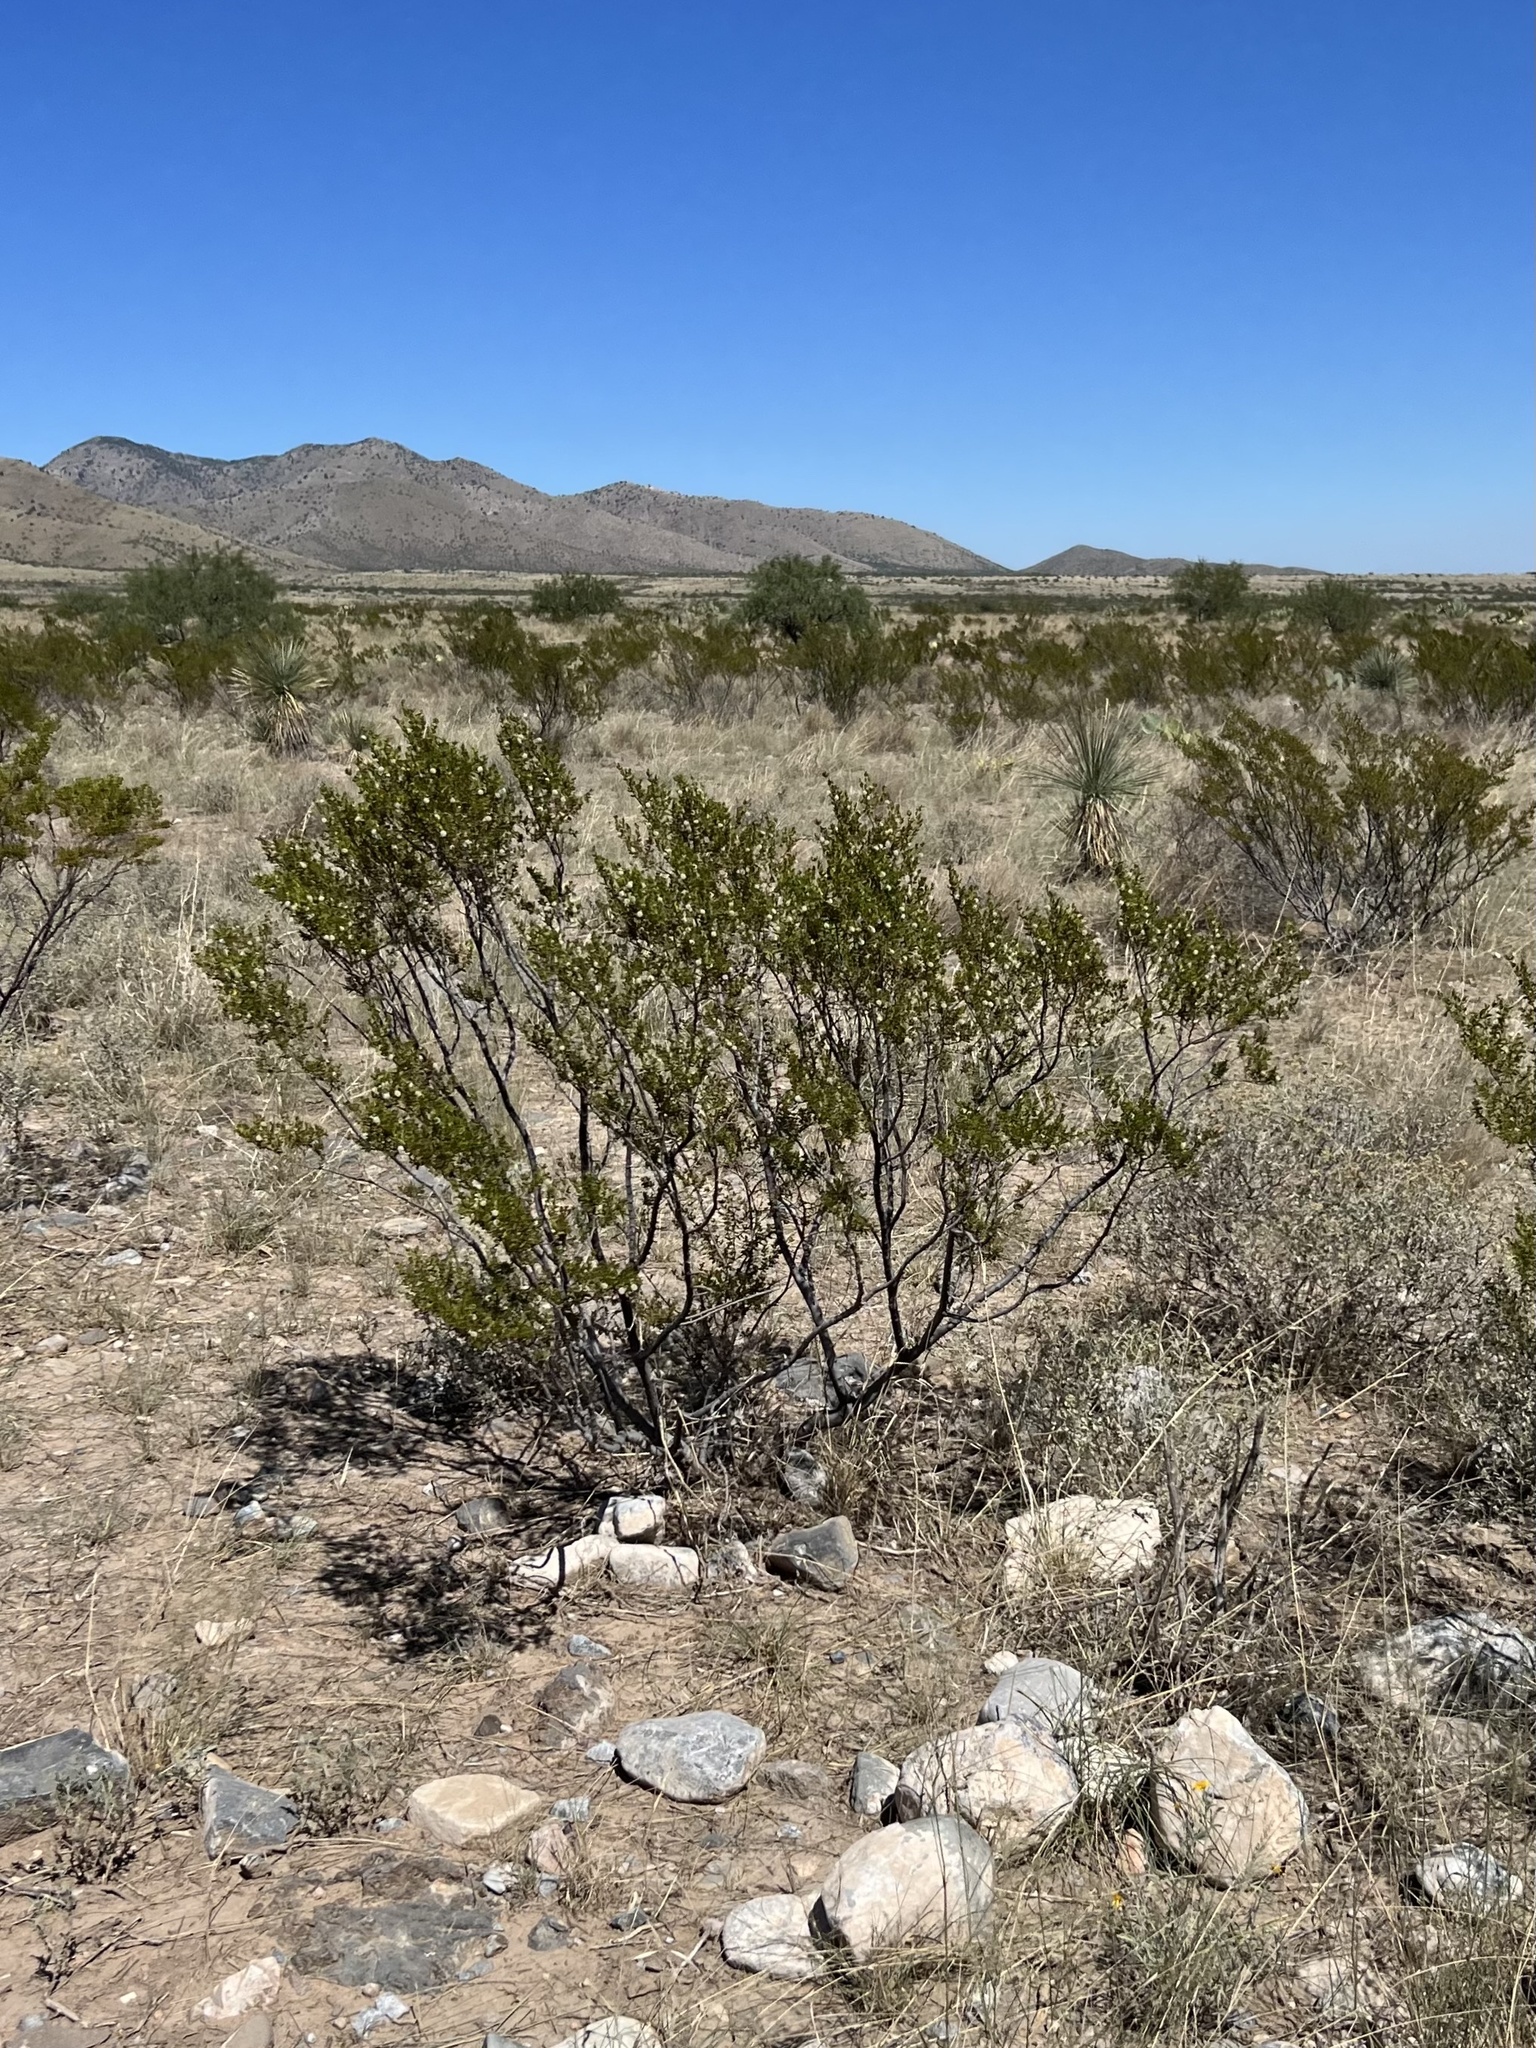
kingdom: Plantae
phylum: Tracheophyta
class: Magnoliopsida
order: Zygophyllales
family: Zygophyllaceae
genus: Larrea
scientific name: Larrea tridentata
